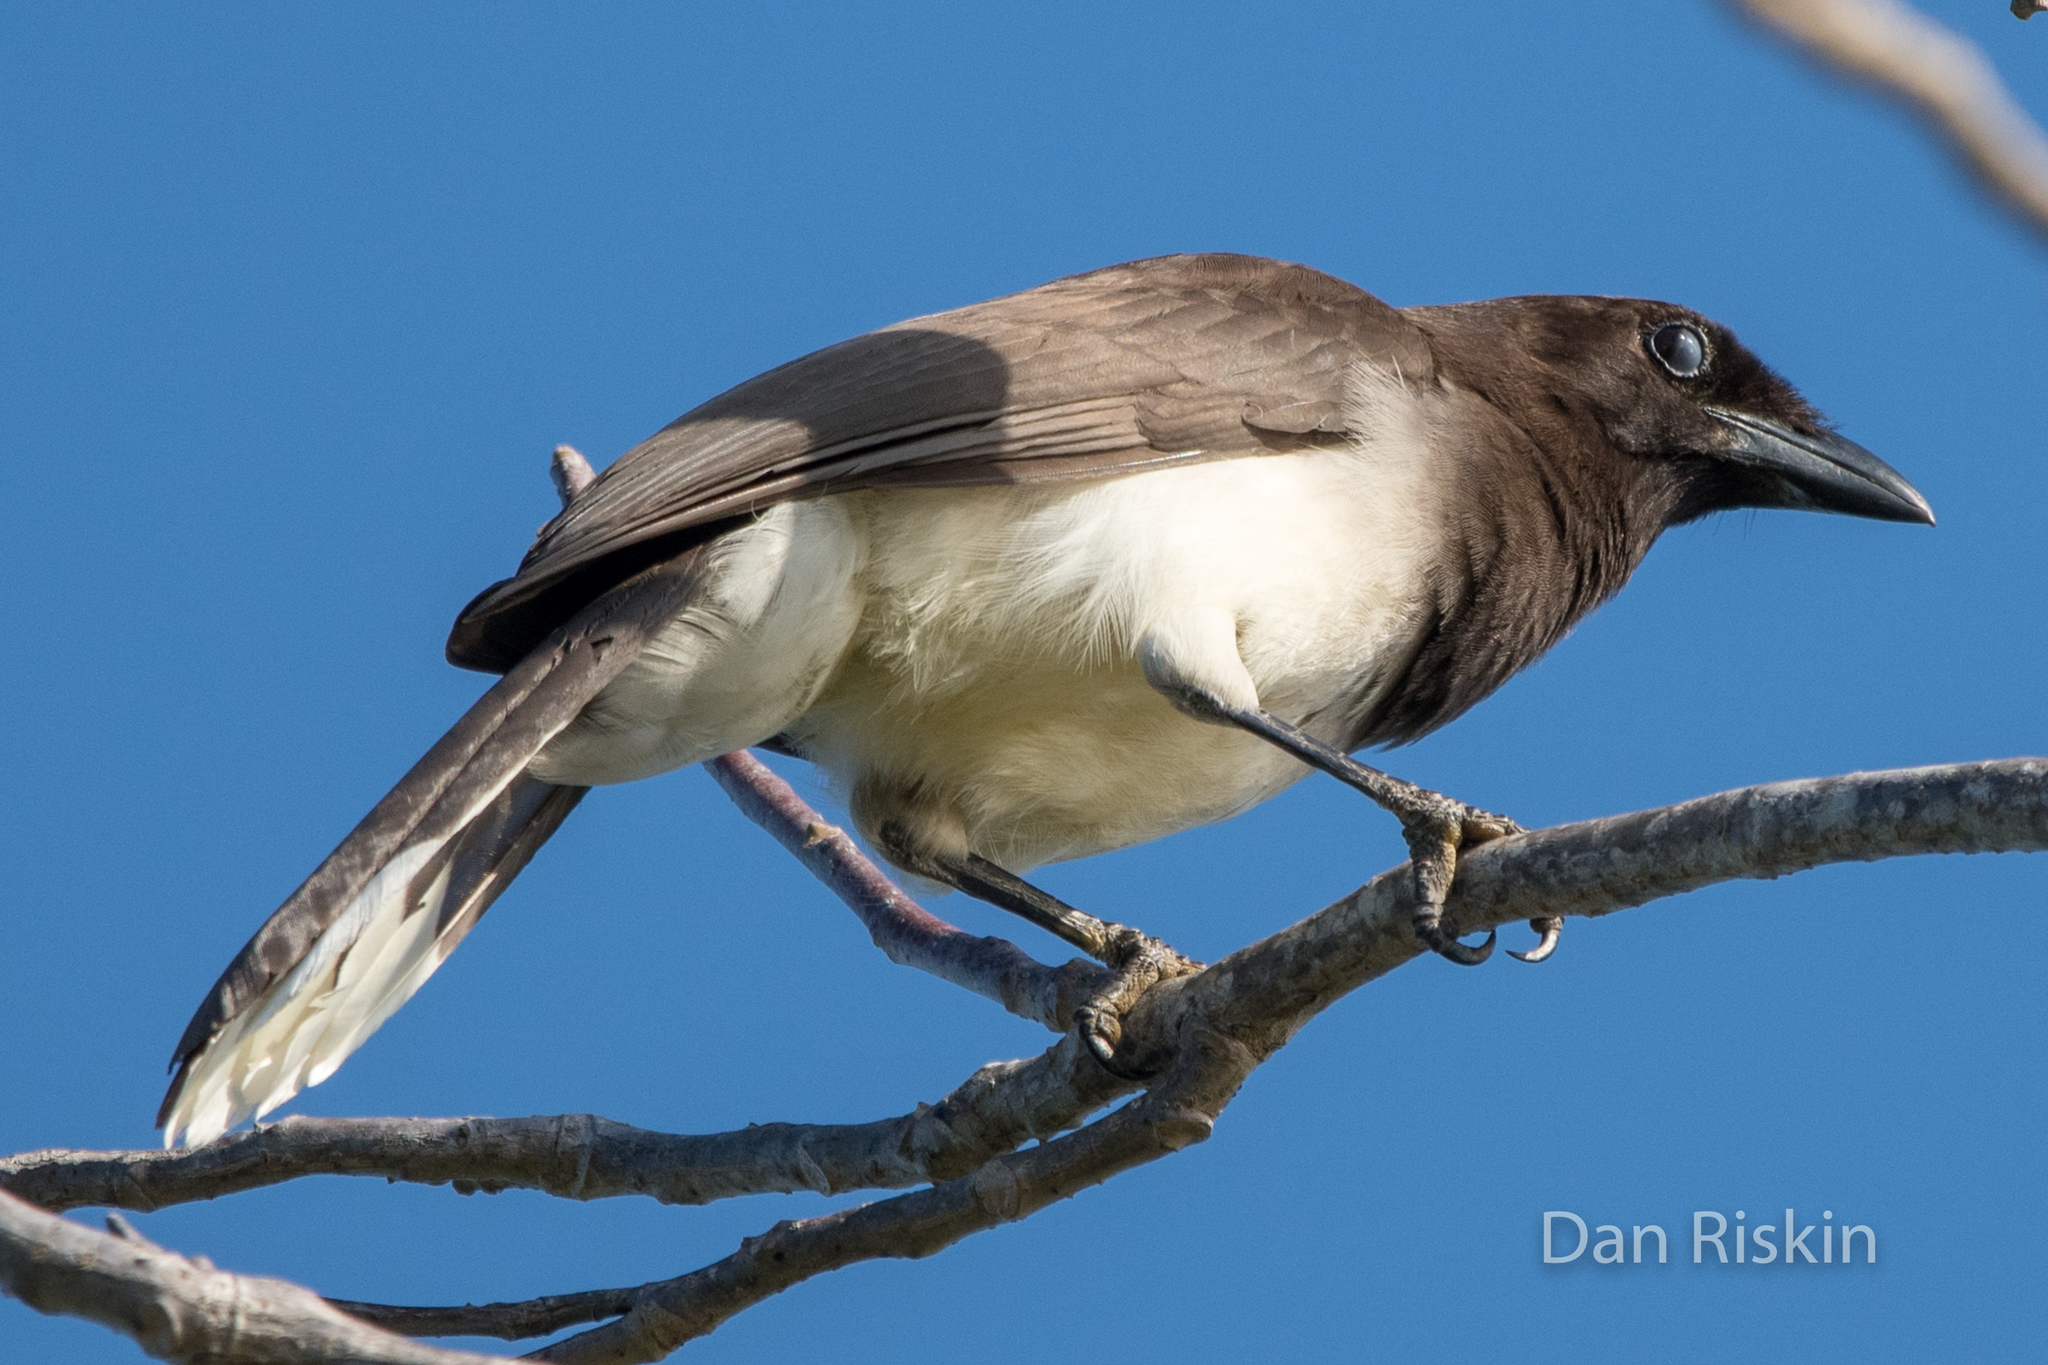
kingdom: Animalia
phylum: Chordata
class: Aves
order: Passeriformes
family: Corvidae
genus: Psilorhinus
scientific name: Psilorhinus morio
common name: Brown jay
